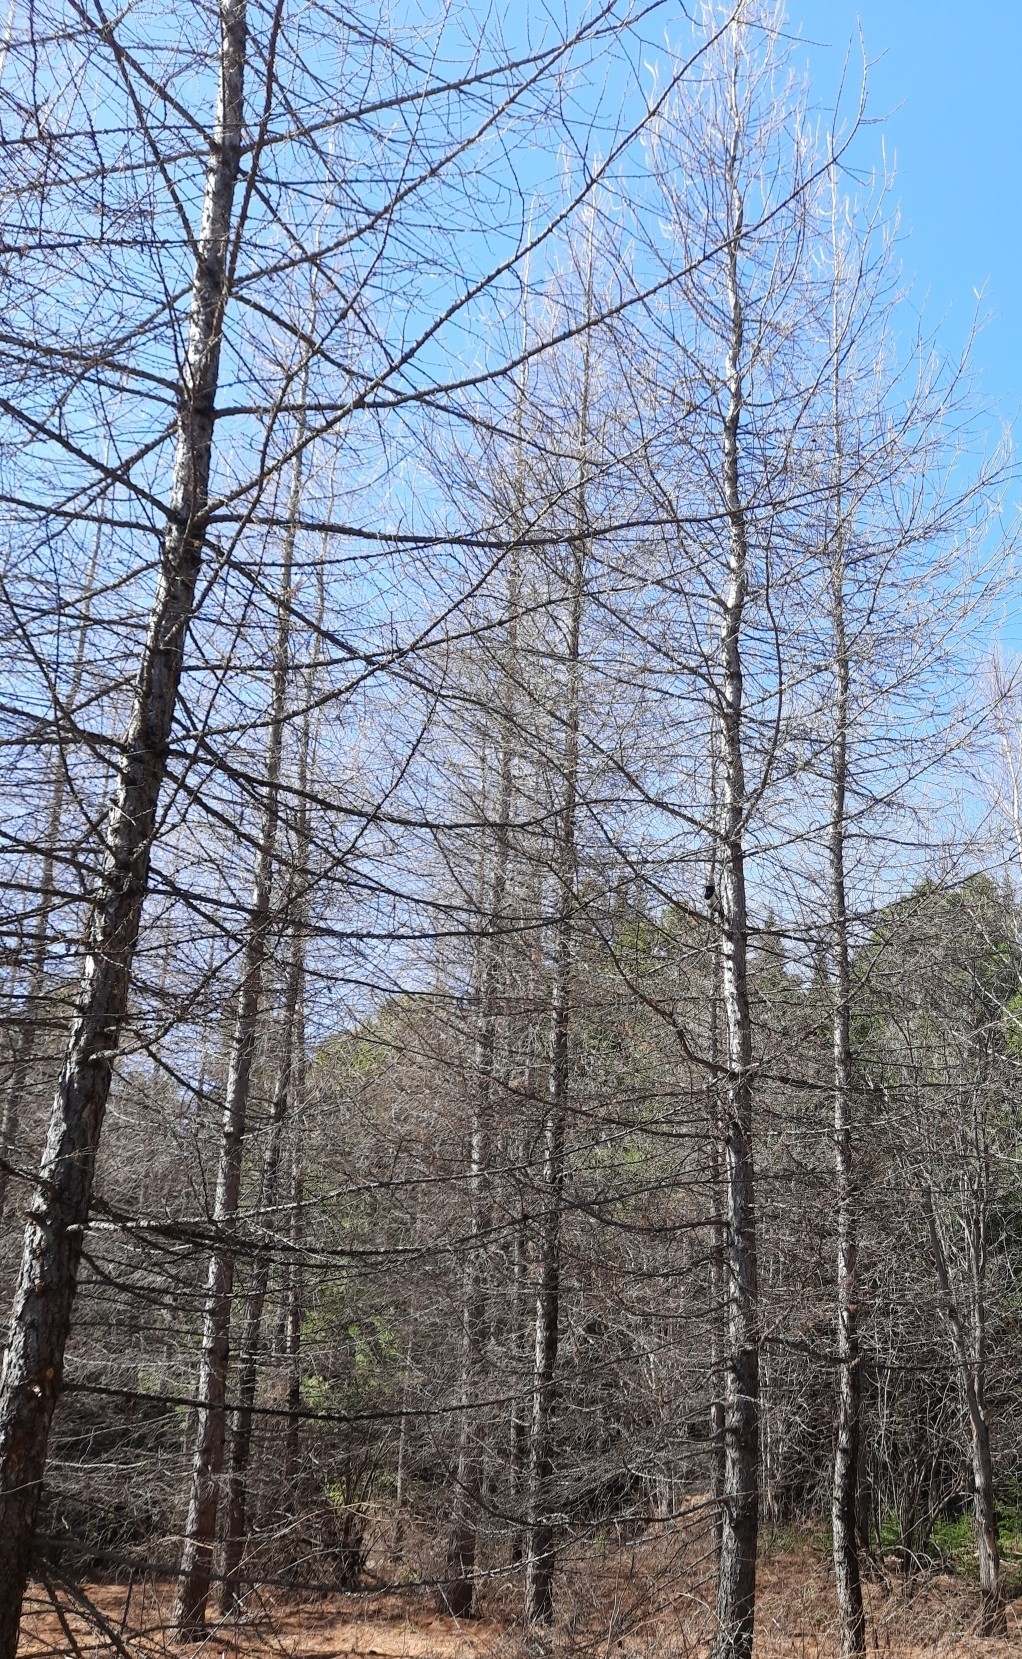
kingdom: Plantae
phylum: Tracheophyta
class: Pinopsida
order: Pinales
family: Pinaceae
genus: Larix
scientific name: Larix sibirica
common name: Siberian larch
